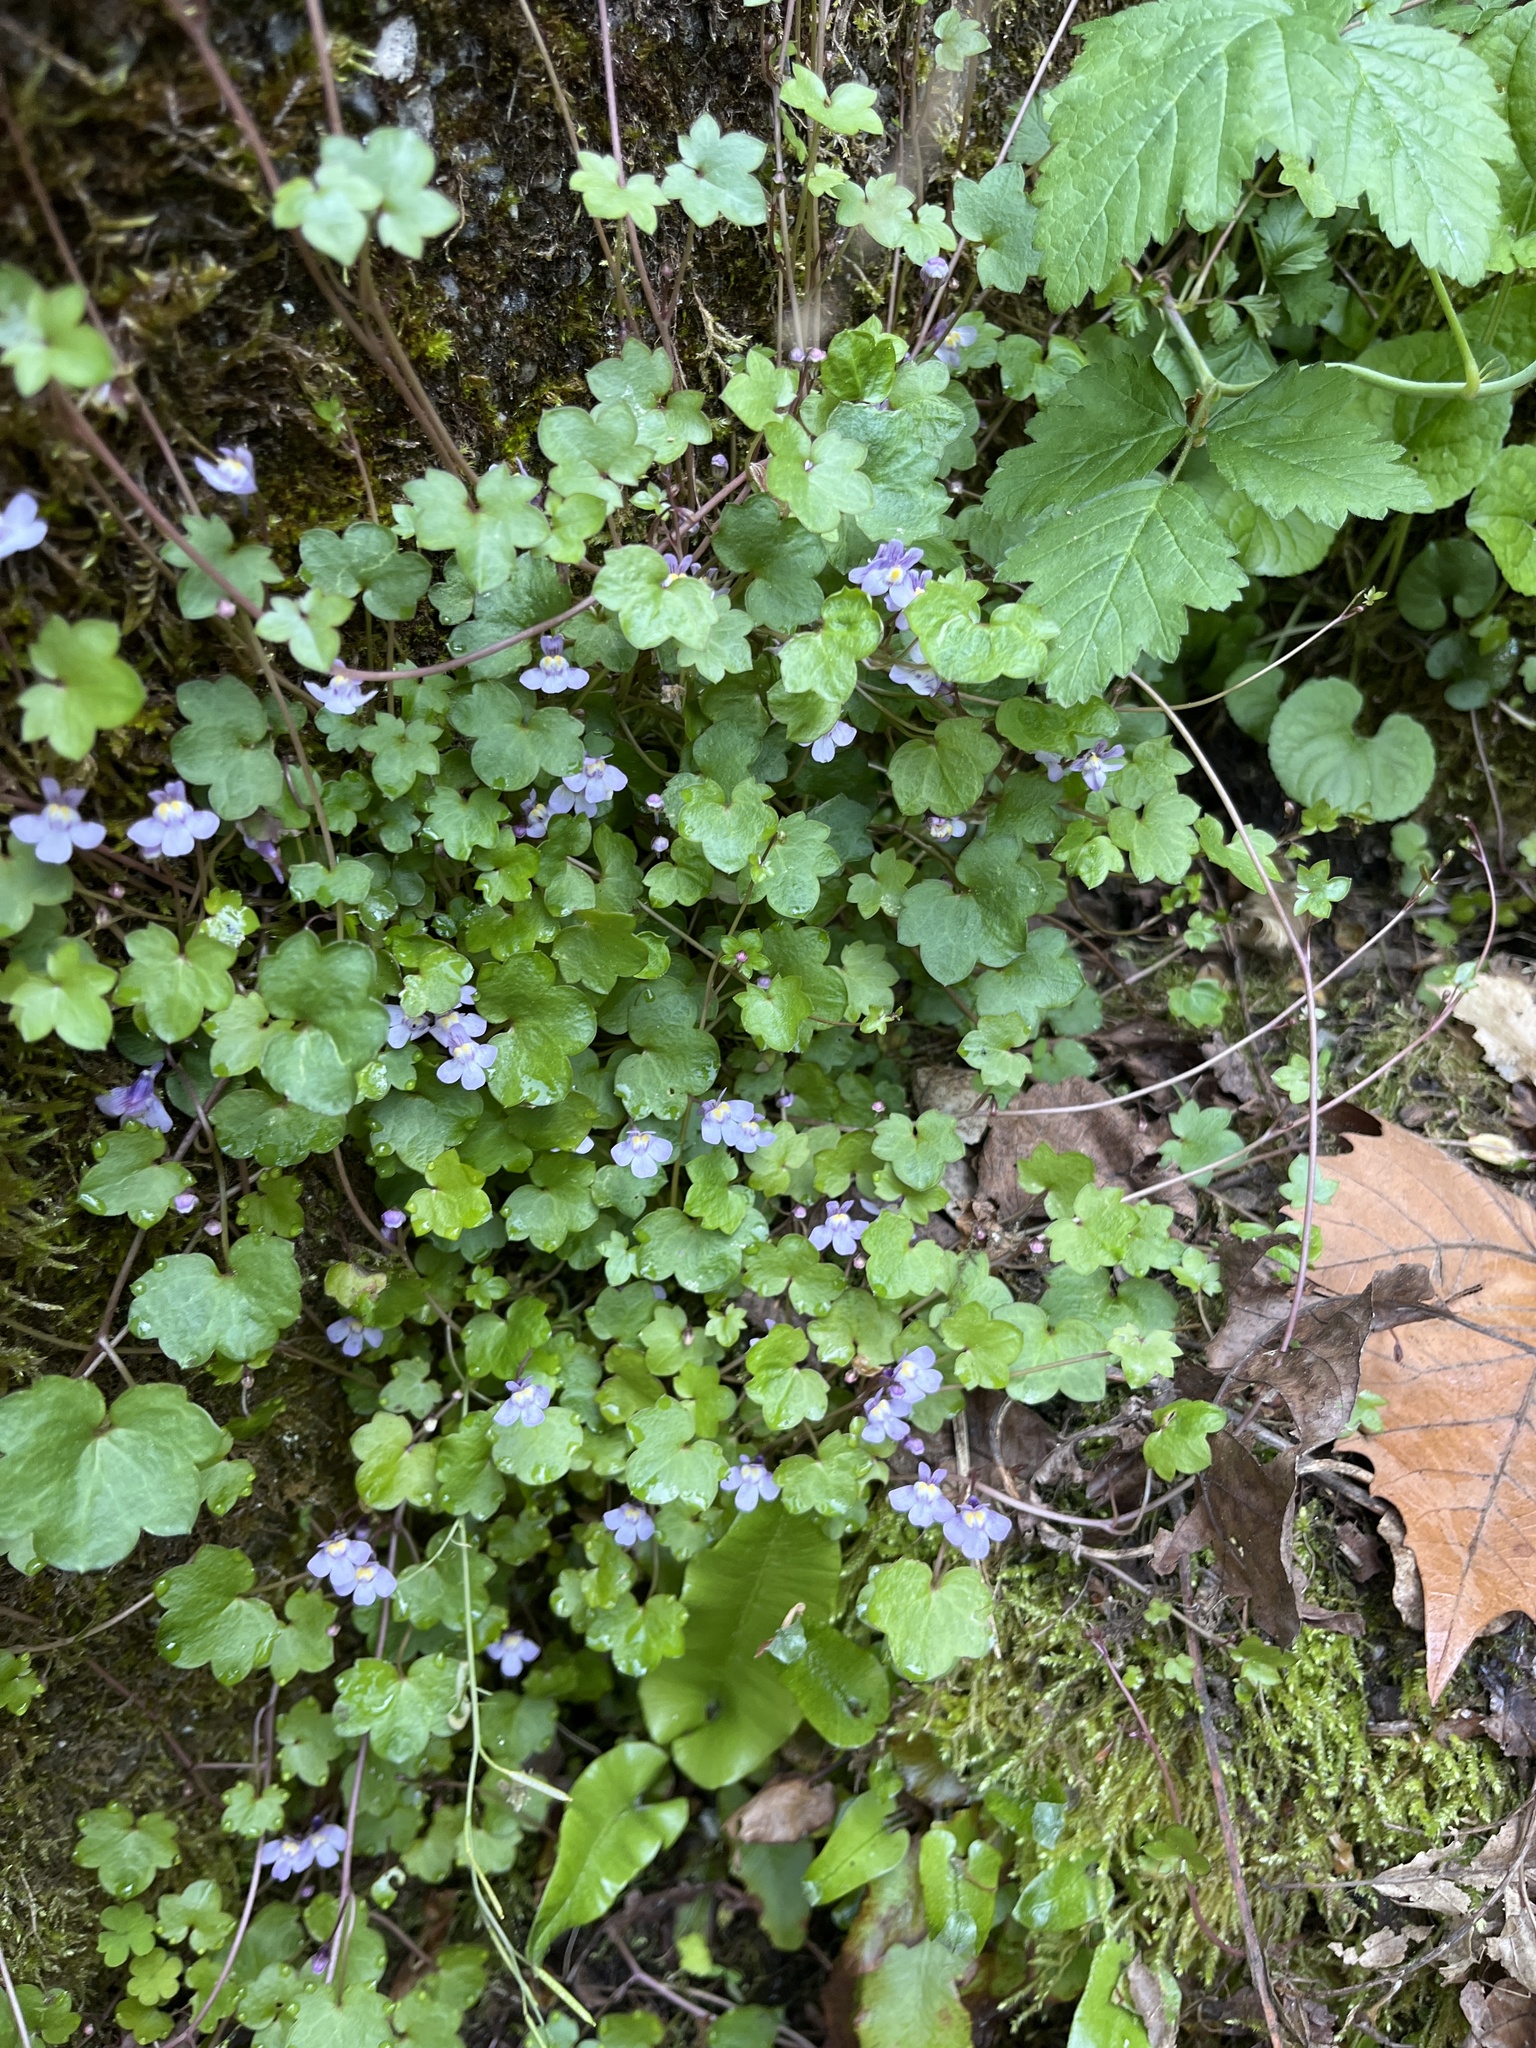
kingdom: Plantae
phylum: Tracheophyta
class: Magnoliopsida
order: Lamiales
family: Plantaginaceae
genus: Cymbalaria
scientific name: Cymbalaria muralis
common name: Ivy-leaved toadflax
